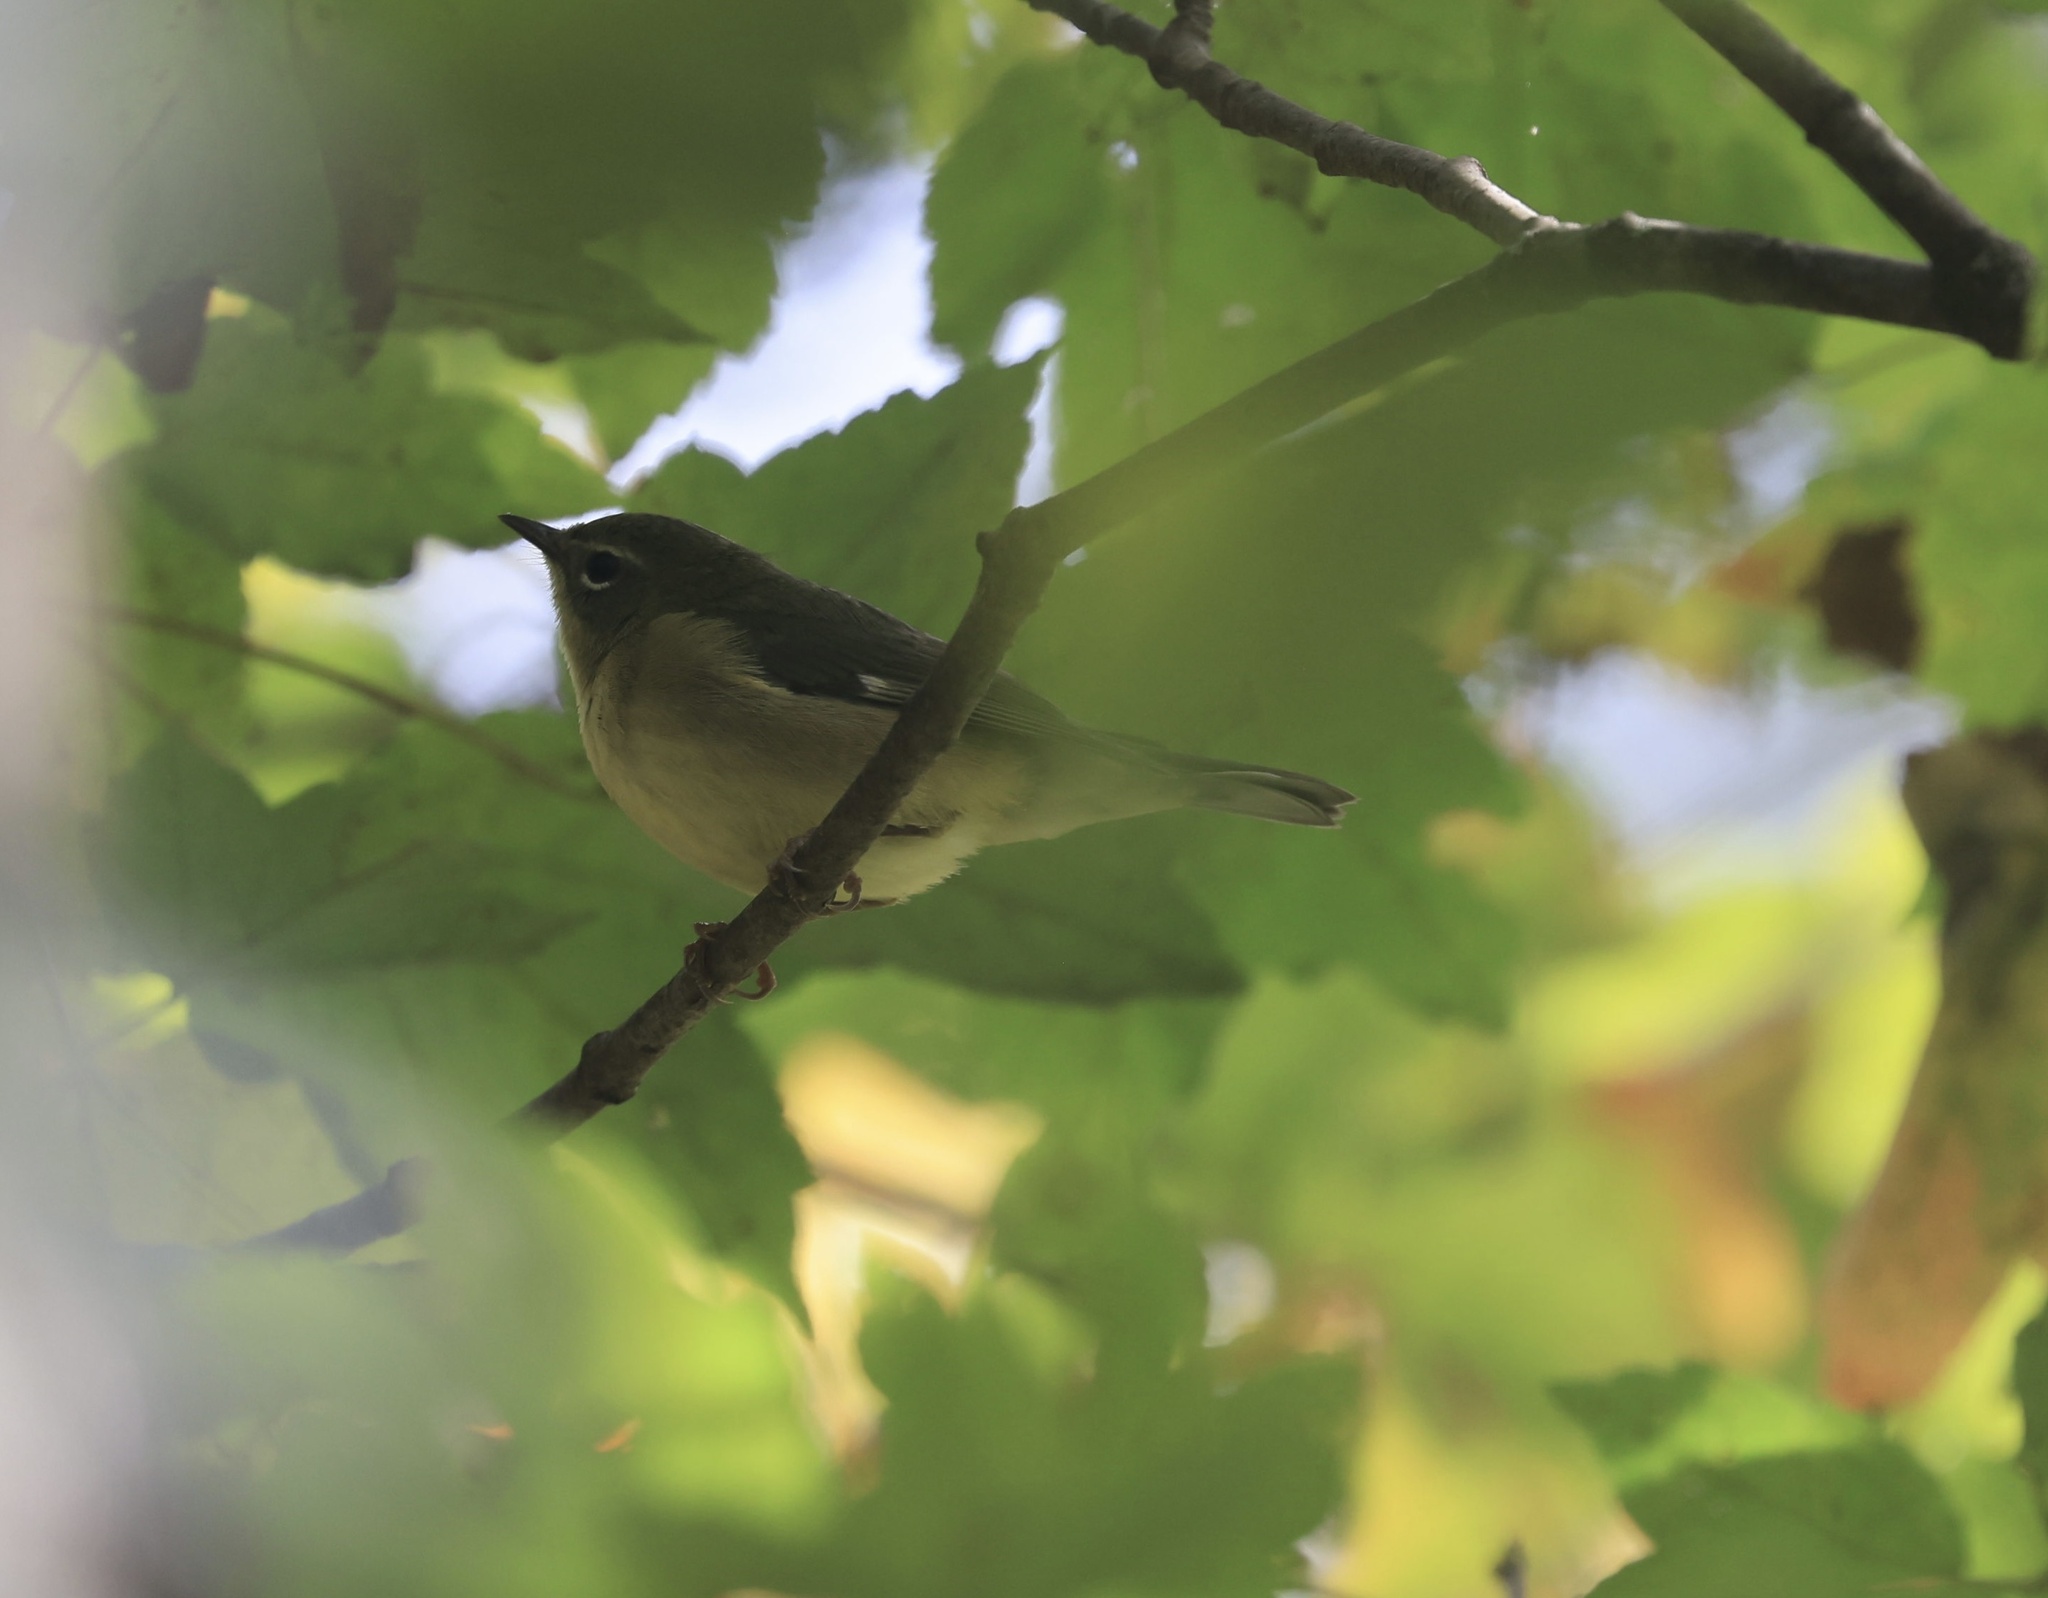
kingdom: Animalia
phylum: Chordata
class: Aves
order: Passeriformes
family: Parulidae
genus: Setophaga
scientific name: Setophaga caerulescens
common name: Black-throated blue warbler
